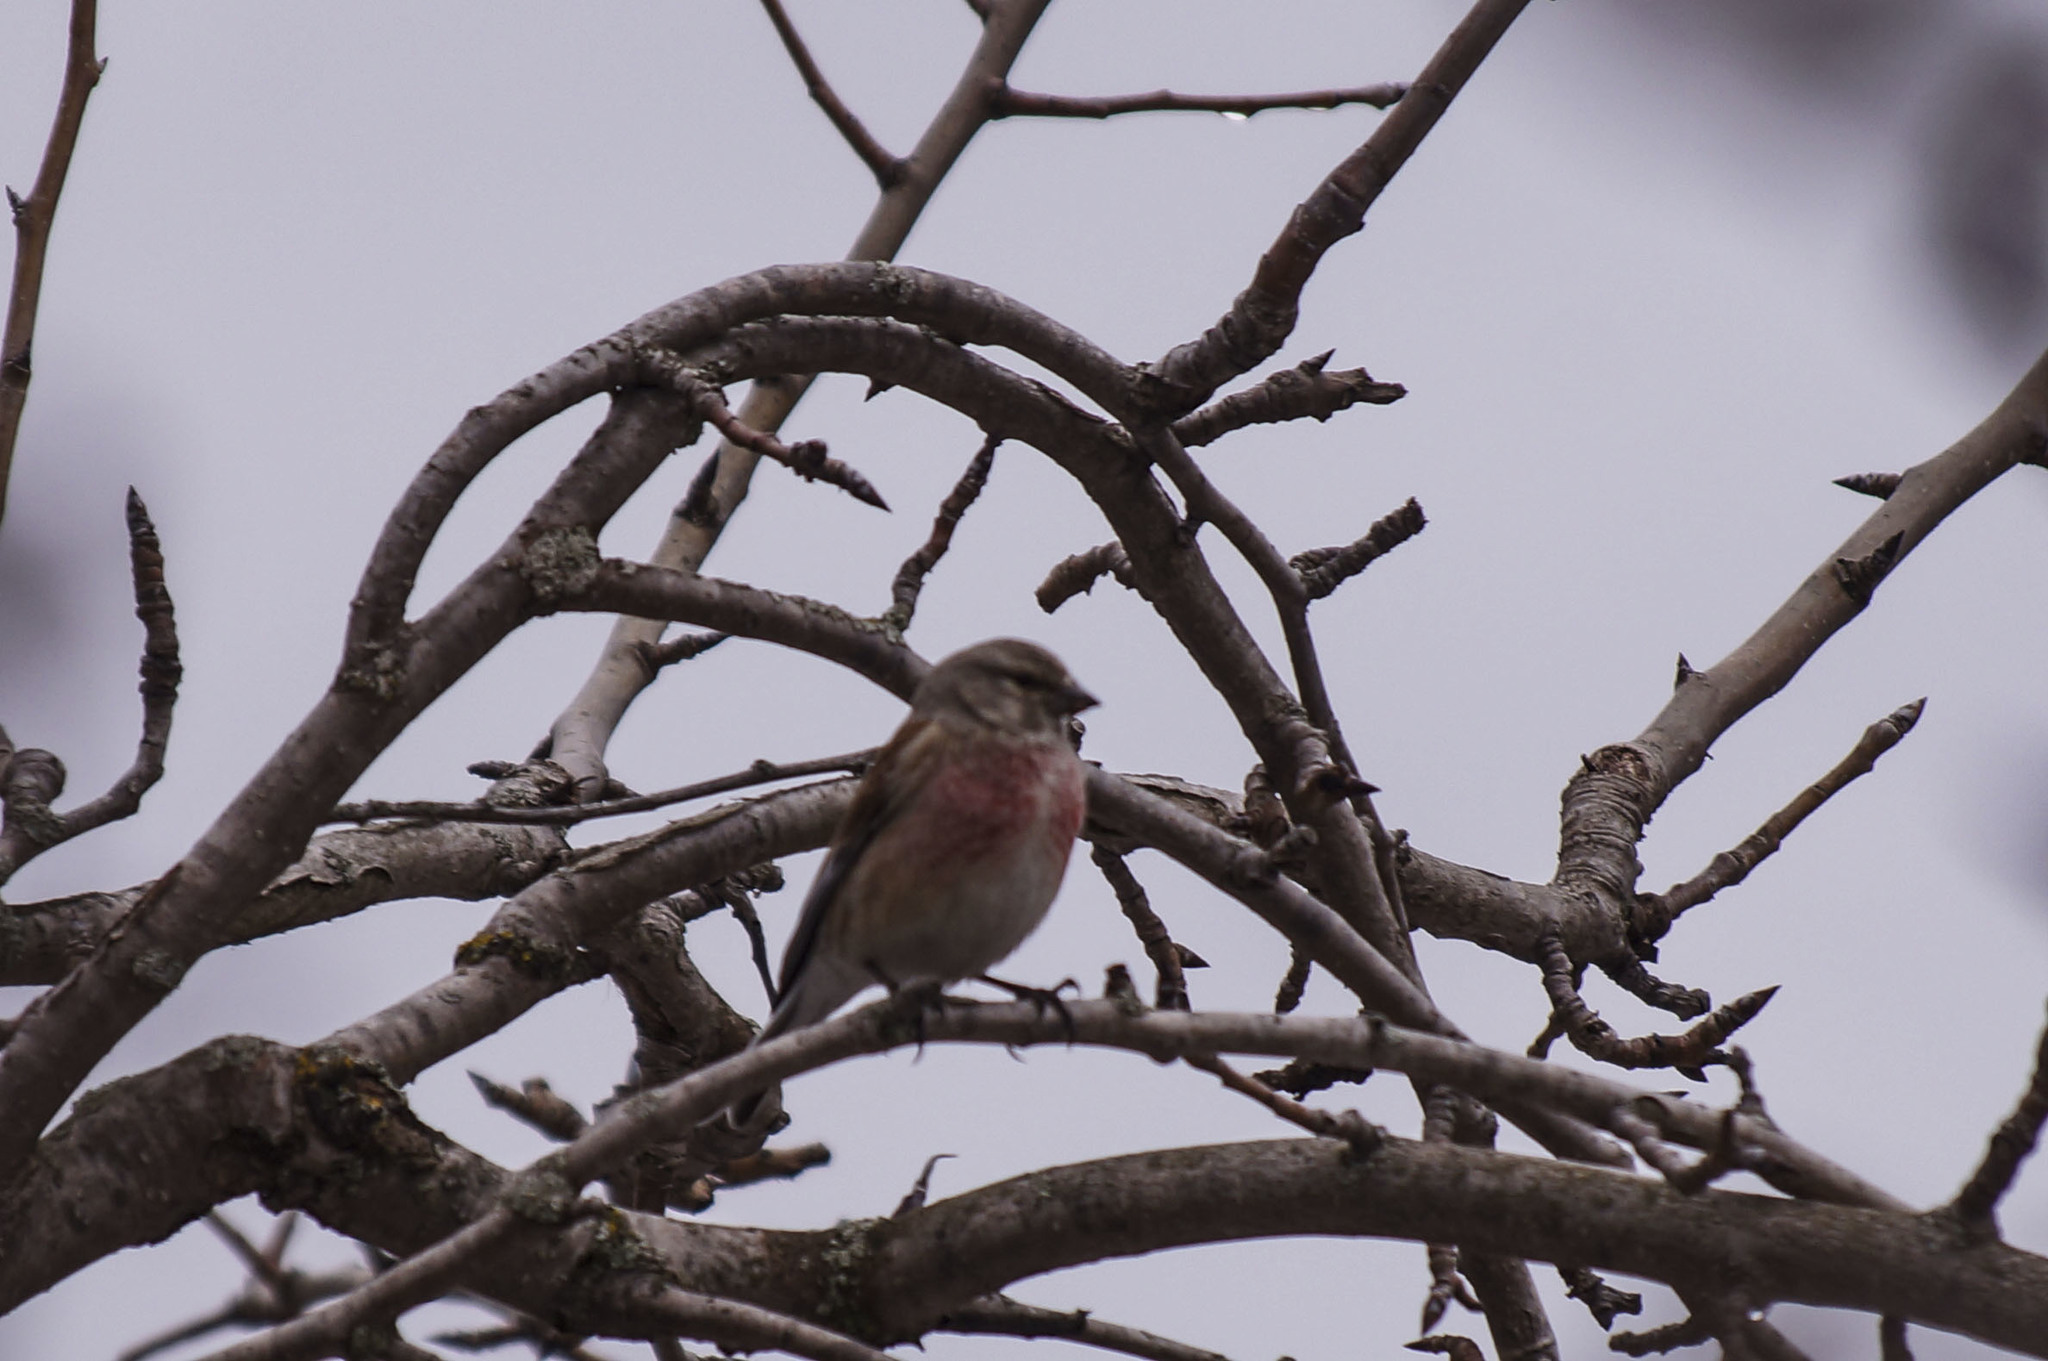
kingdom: Animalia
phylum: Chordata
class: Aves
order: Passeriformes
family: Fringillidae
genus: Linaria
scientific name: Linaria cannabina
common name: Common linnet
